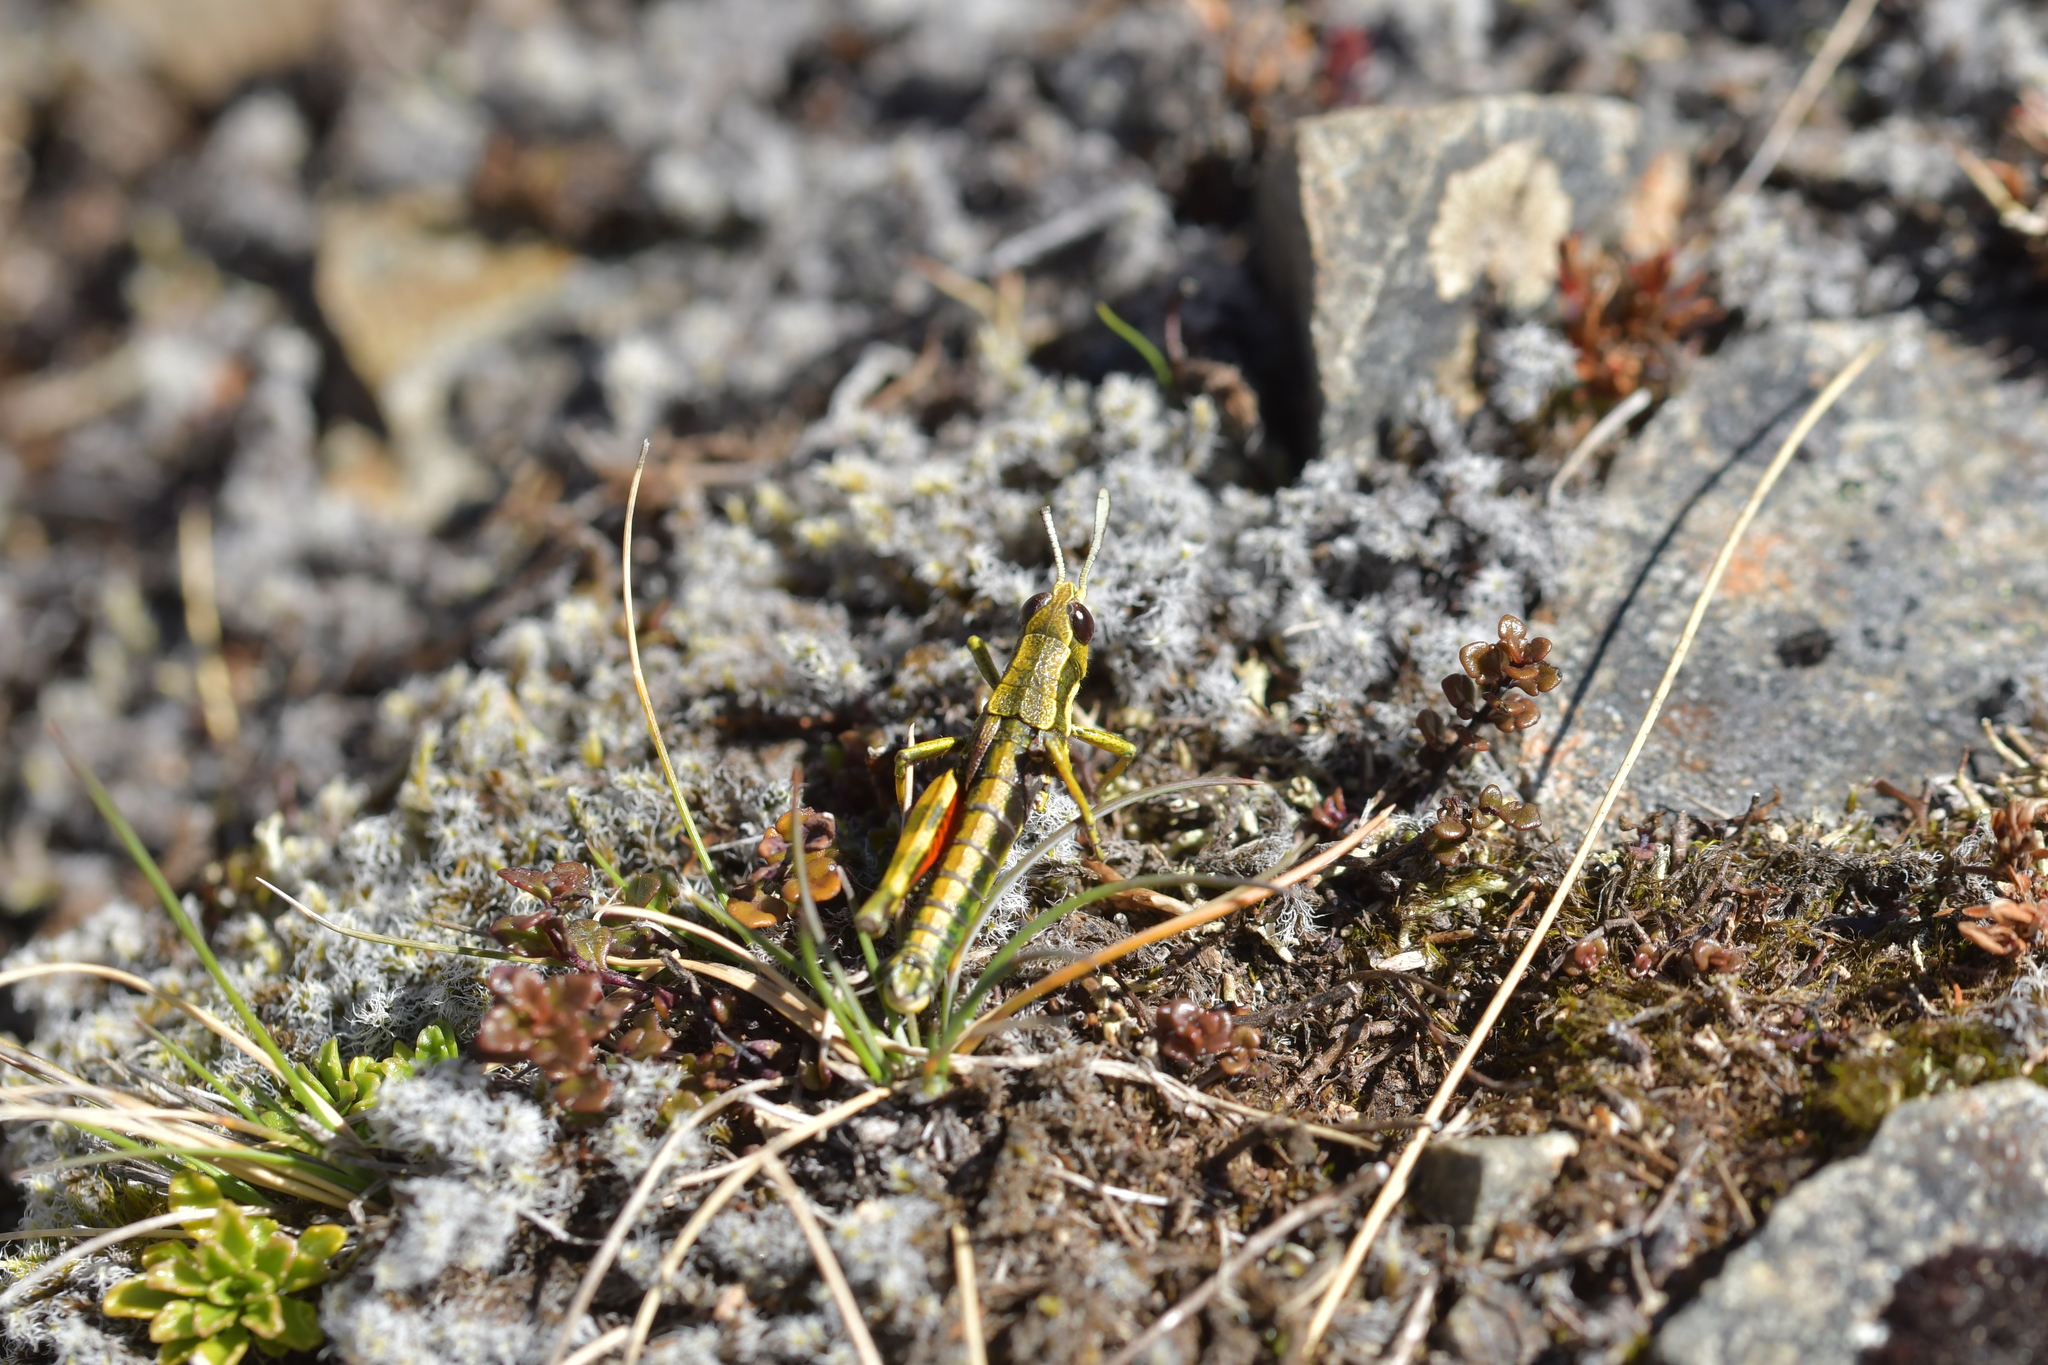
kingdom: Animalia
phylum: Arthropoda
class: Insecta
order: Orthoptera
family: Acrididae
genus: Sigaus
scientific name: Sigaus piliferus
